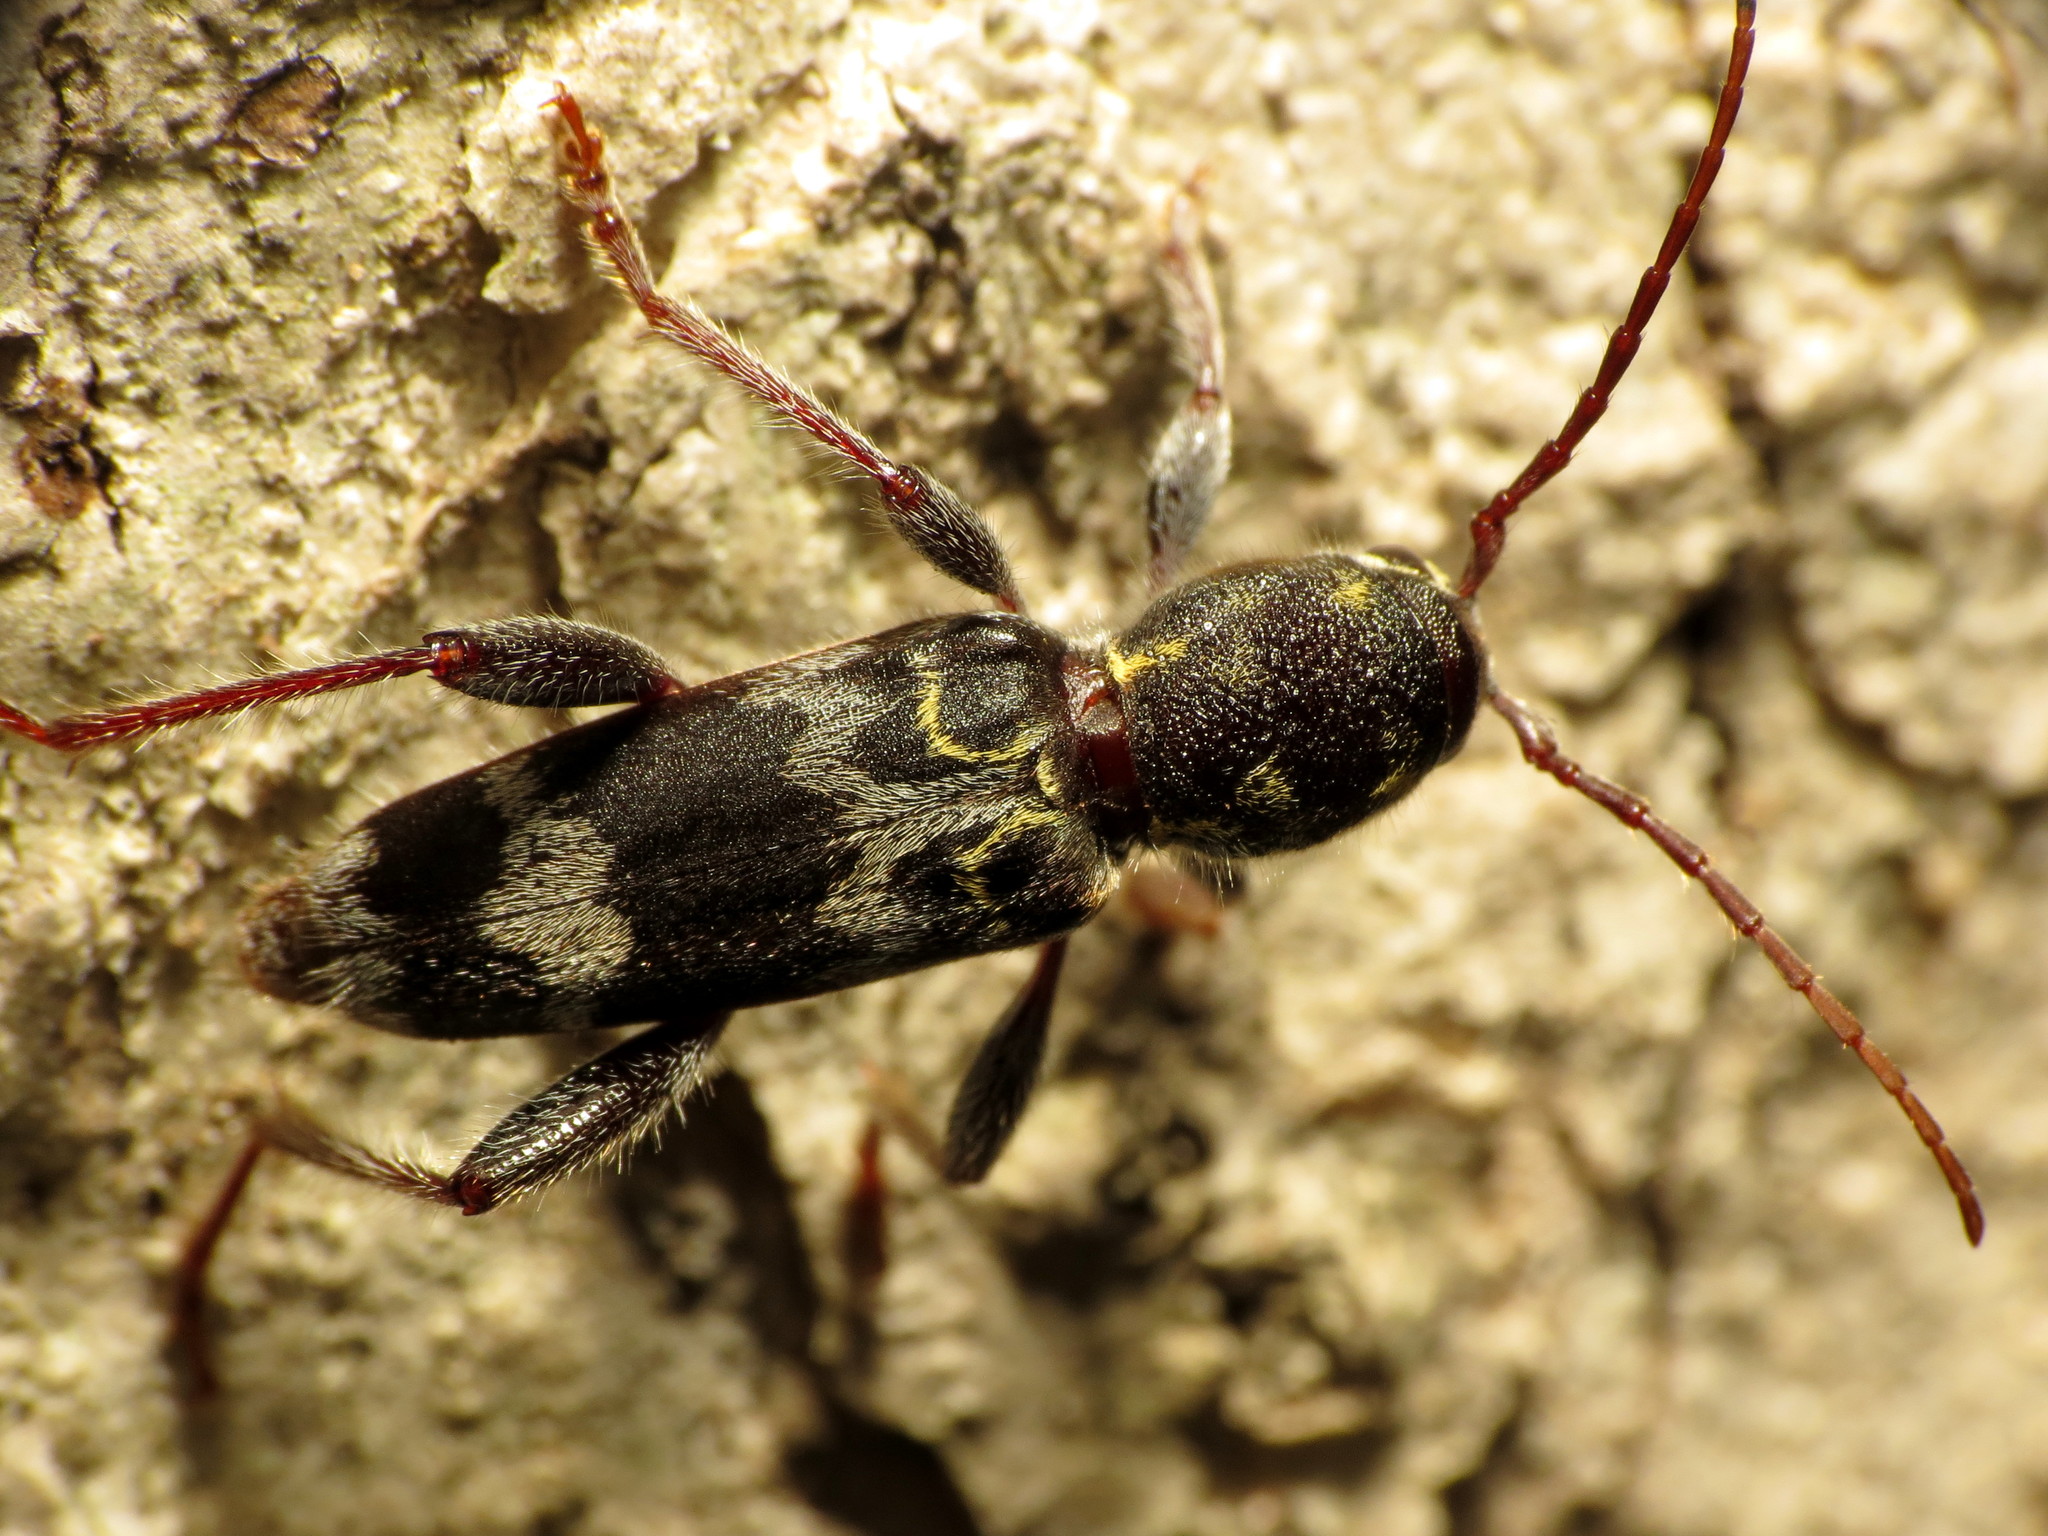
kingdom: Animalia
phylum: Arthropoda
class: Insecta
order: Coleoptera
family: Cerambycidae
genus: Xylotrechus
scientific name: Xylotrechus colonus
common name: Long-horned beetle
